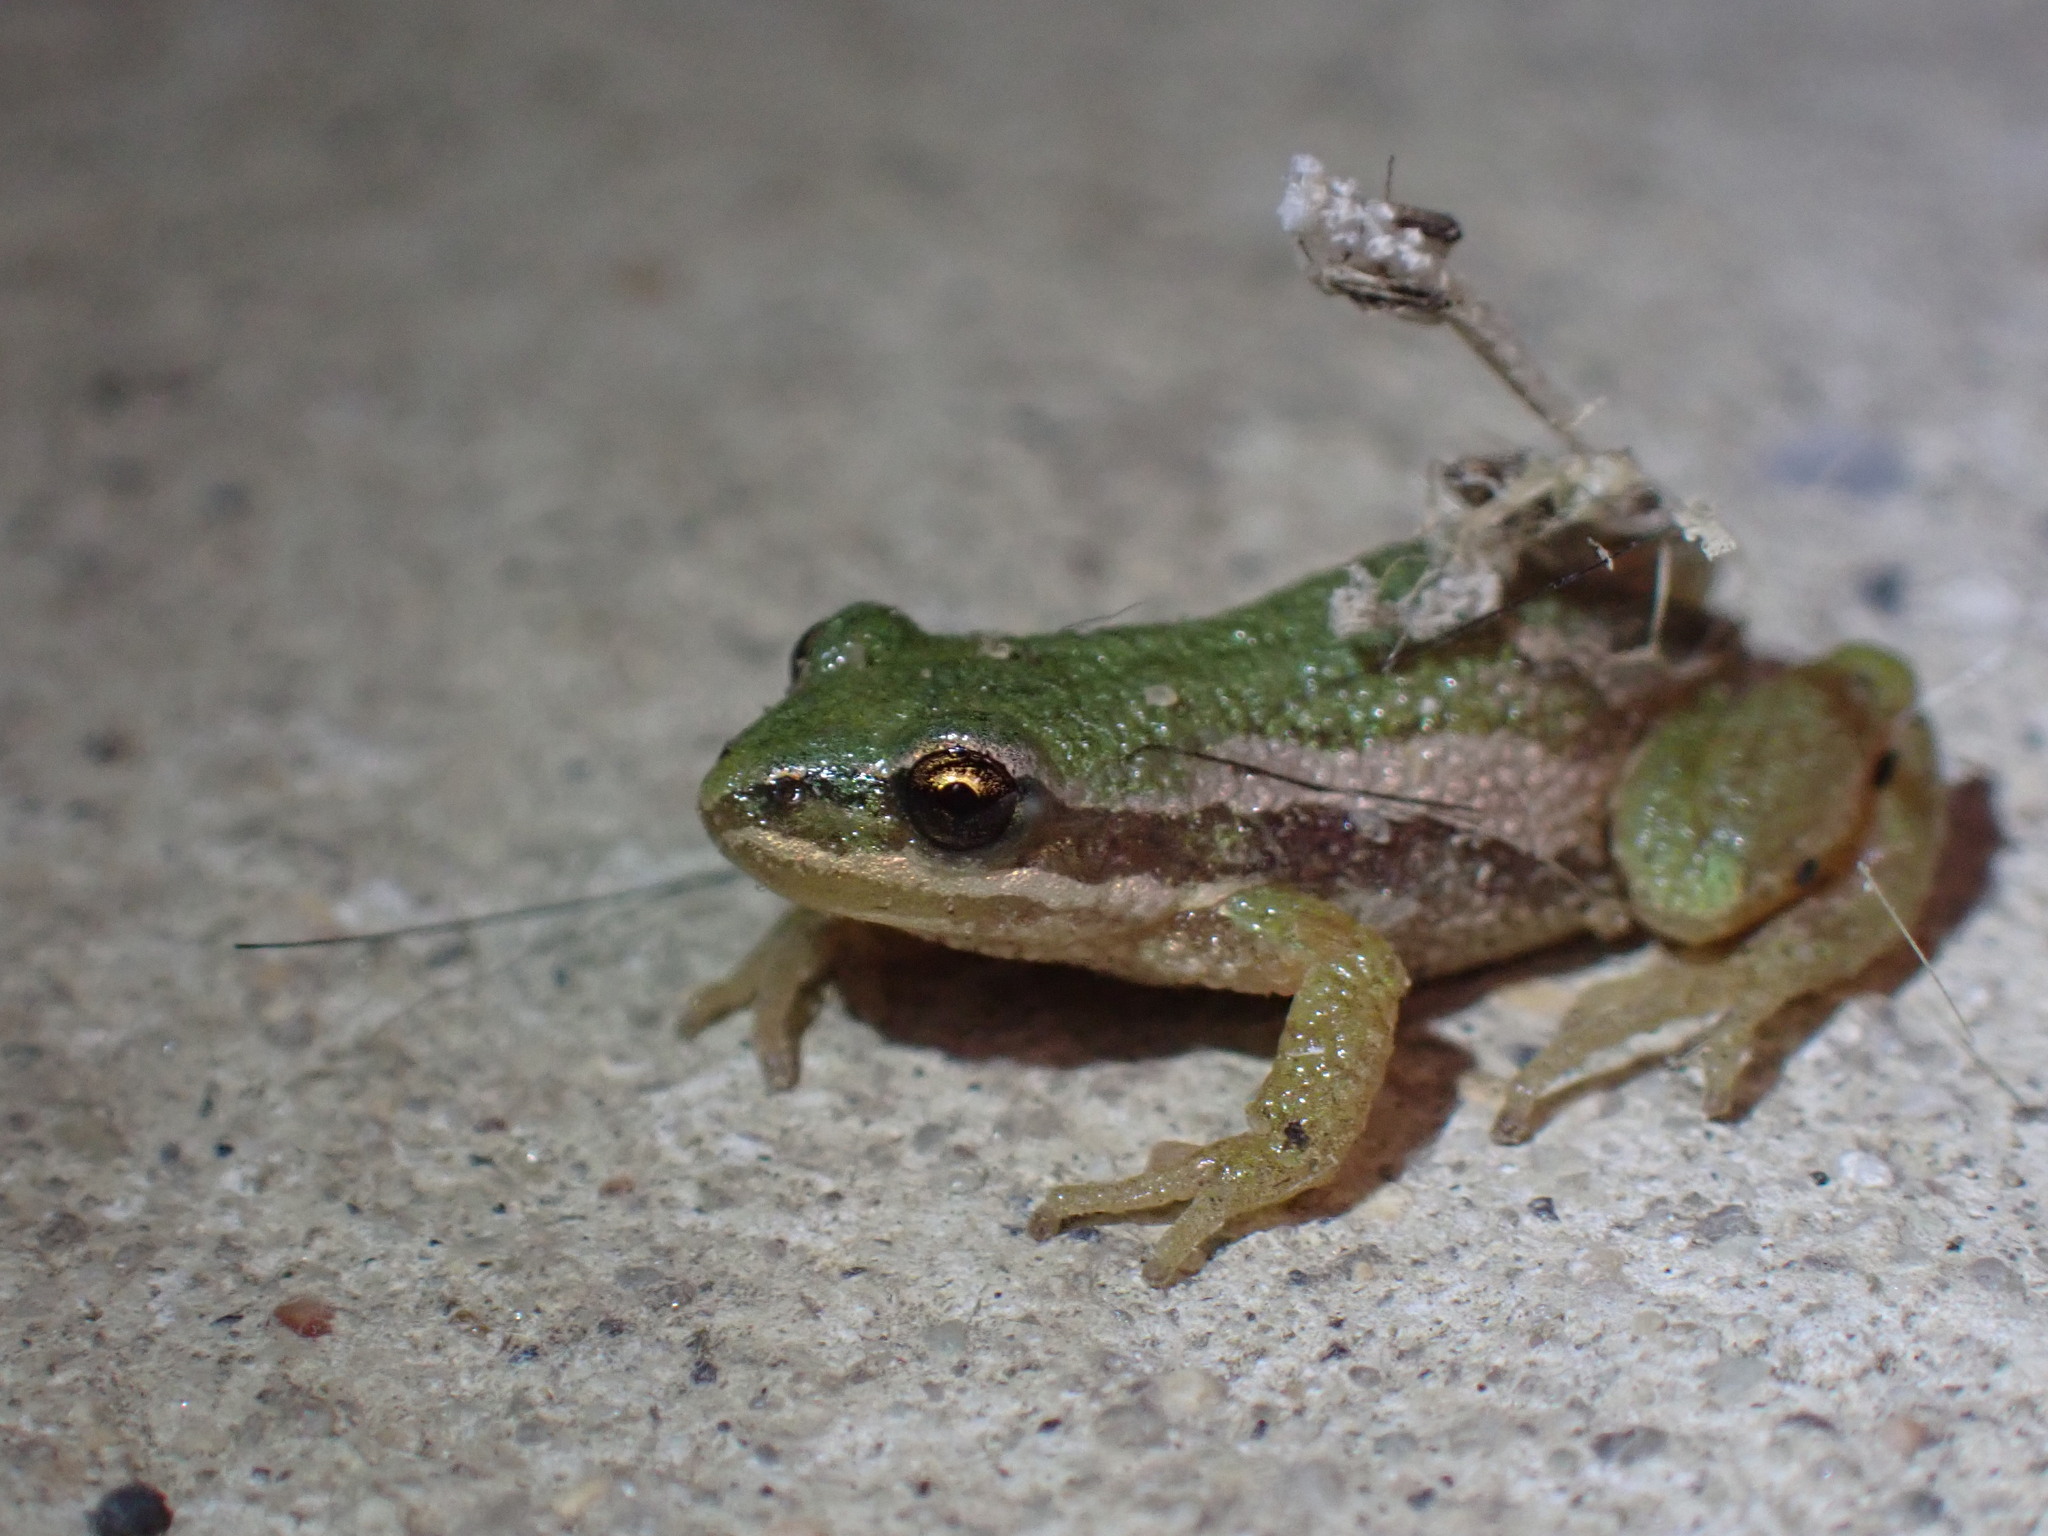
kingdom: Animalia
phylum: Chordata
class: Amphibia
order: Anura
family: Hylidae
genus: Pseudacris
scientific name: Pseudacris maculata
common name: Boreal chorus frog
